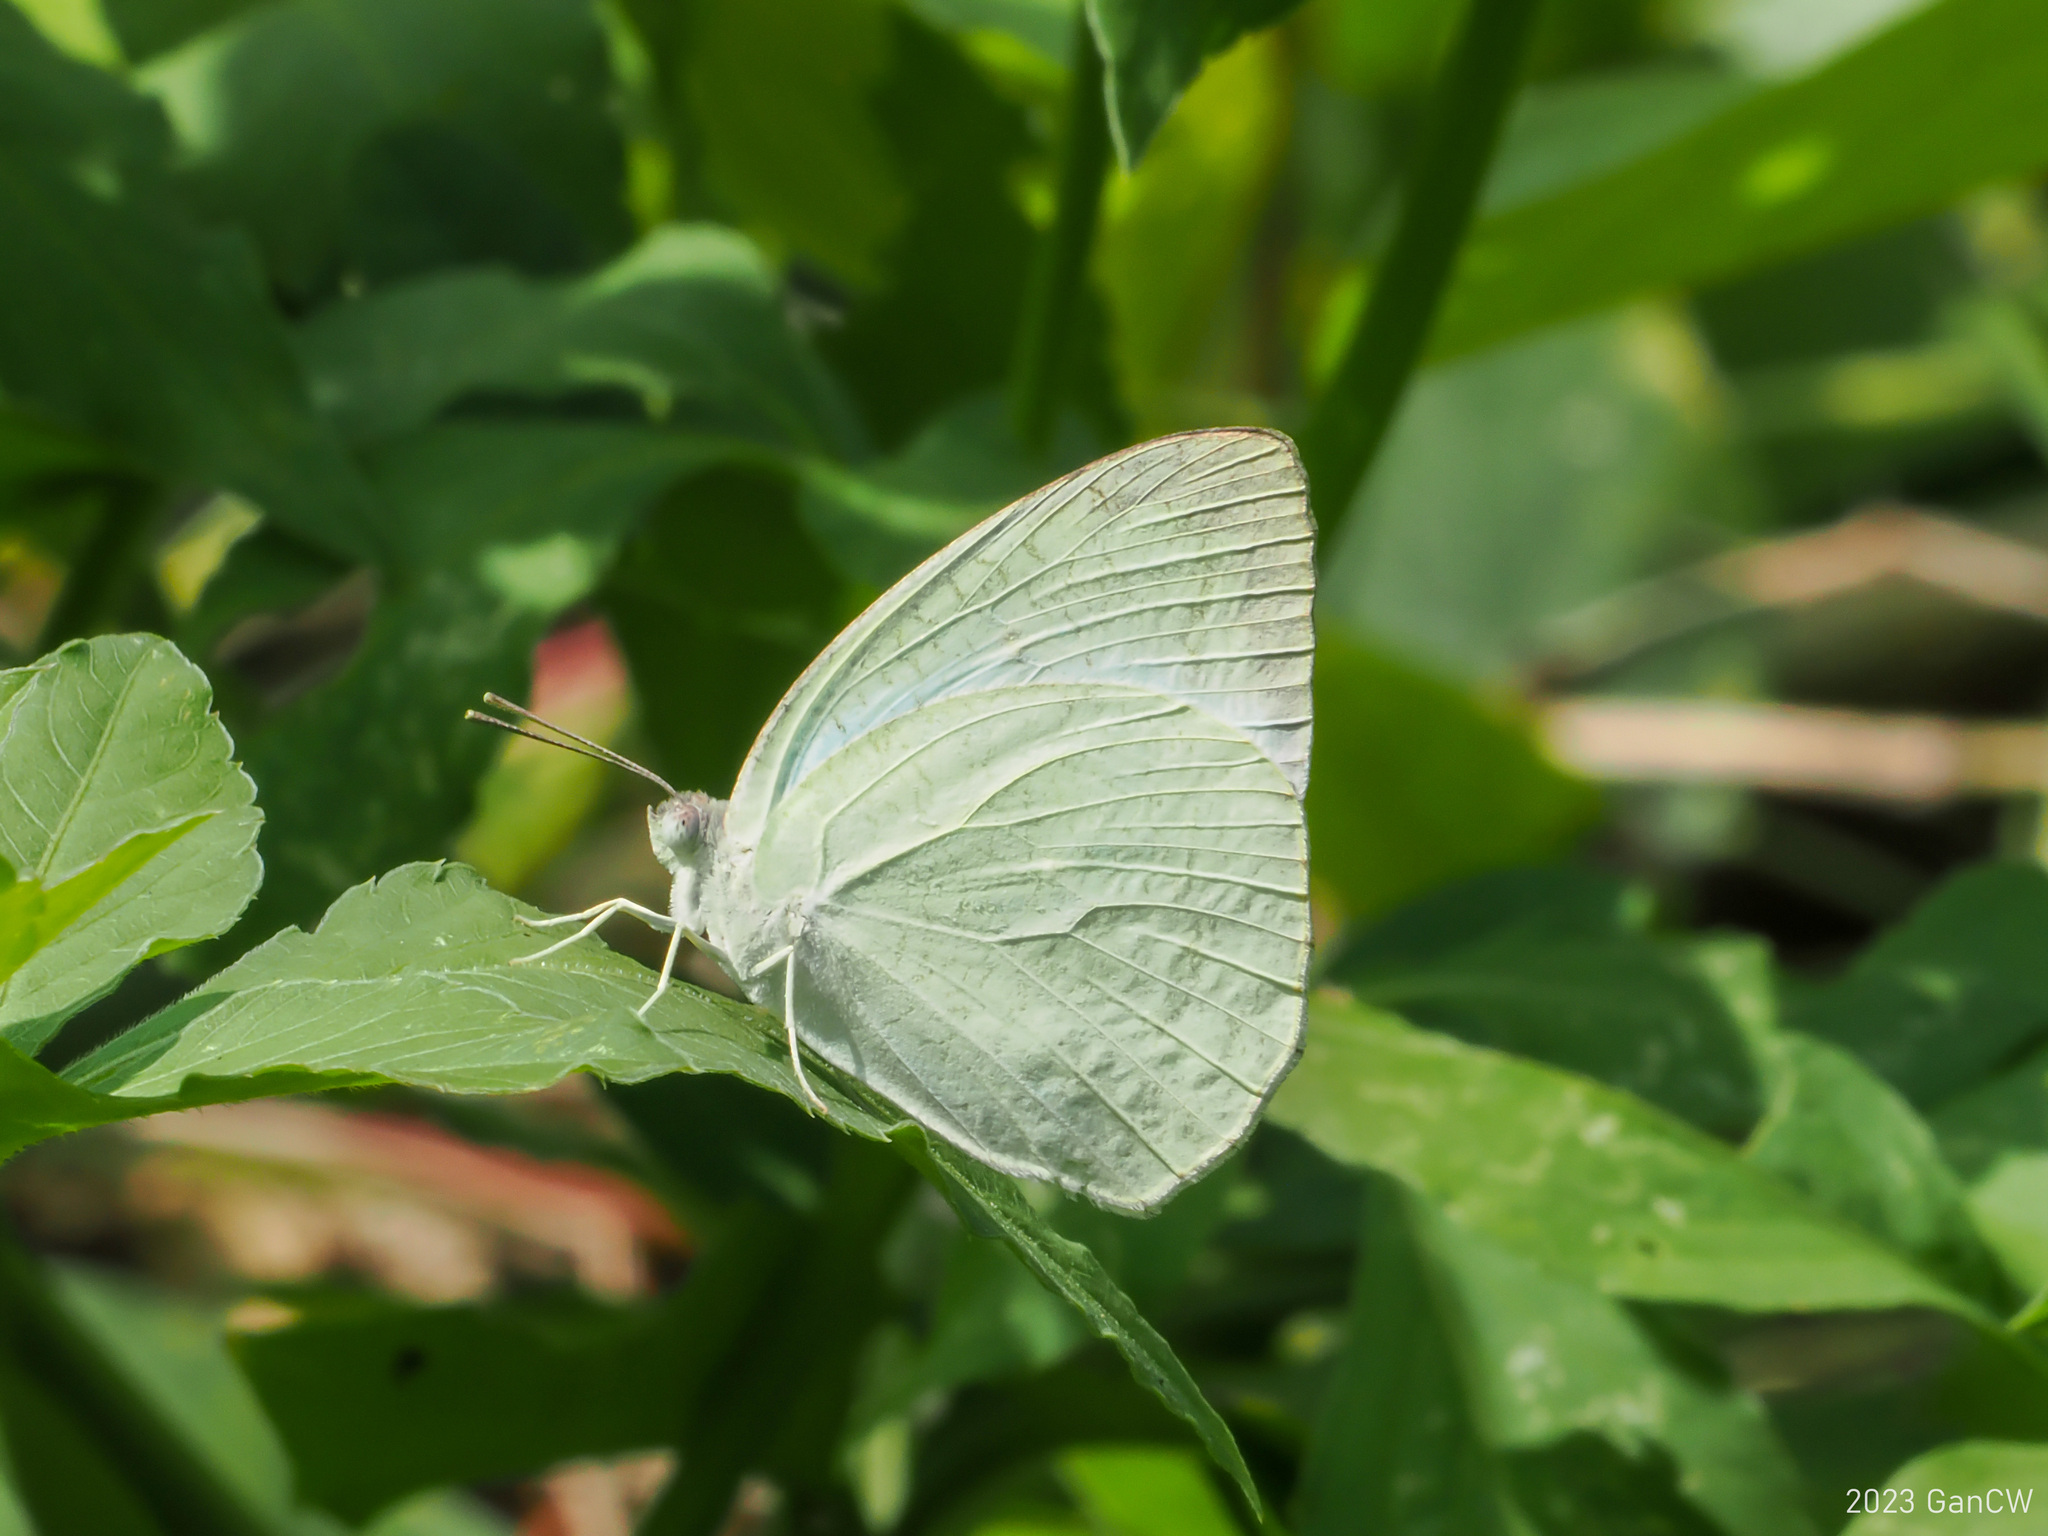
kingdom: Animalia
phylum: Arthropoda
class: Insecta
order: Lepidoptera
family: Pieridae
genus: Catopsilia
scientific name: Catopsilia pyranthe
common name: Mottled emigrant
